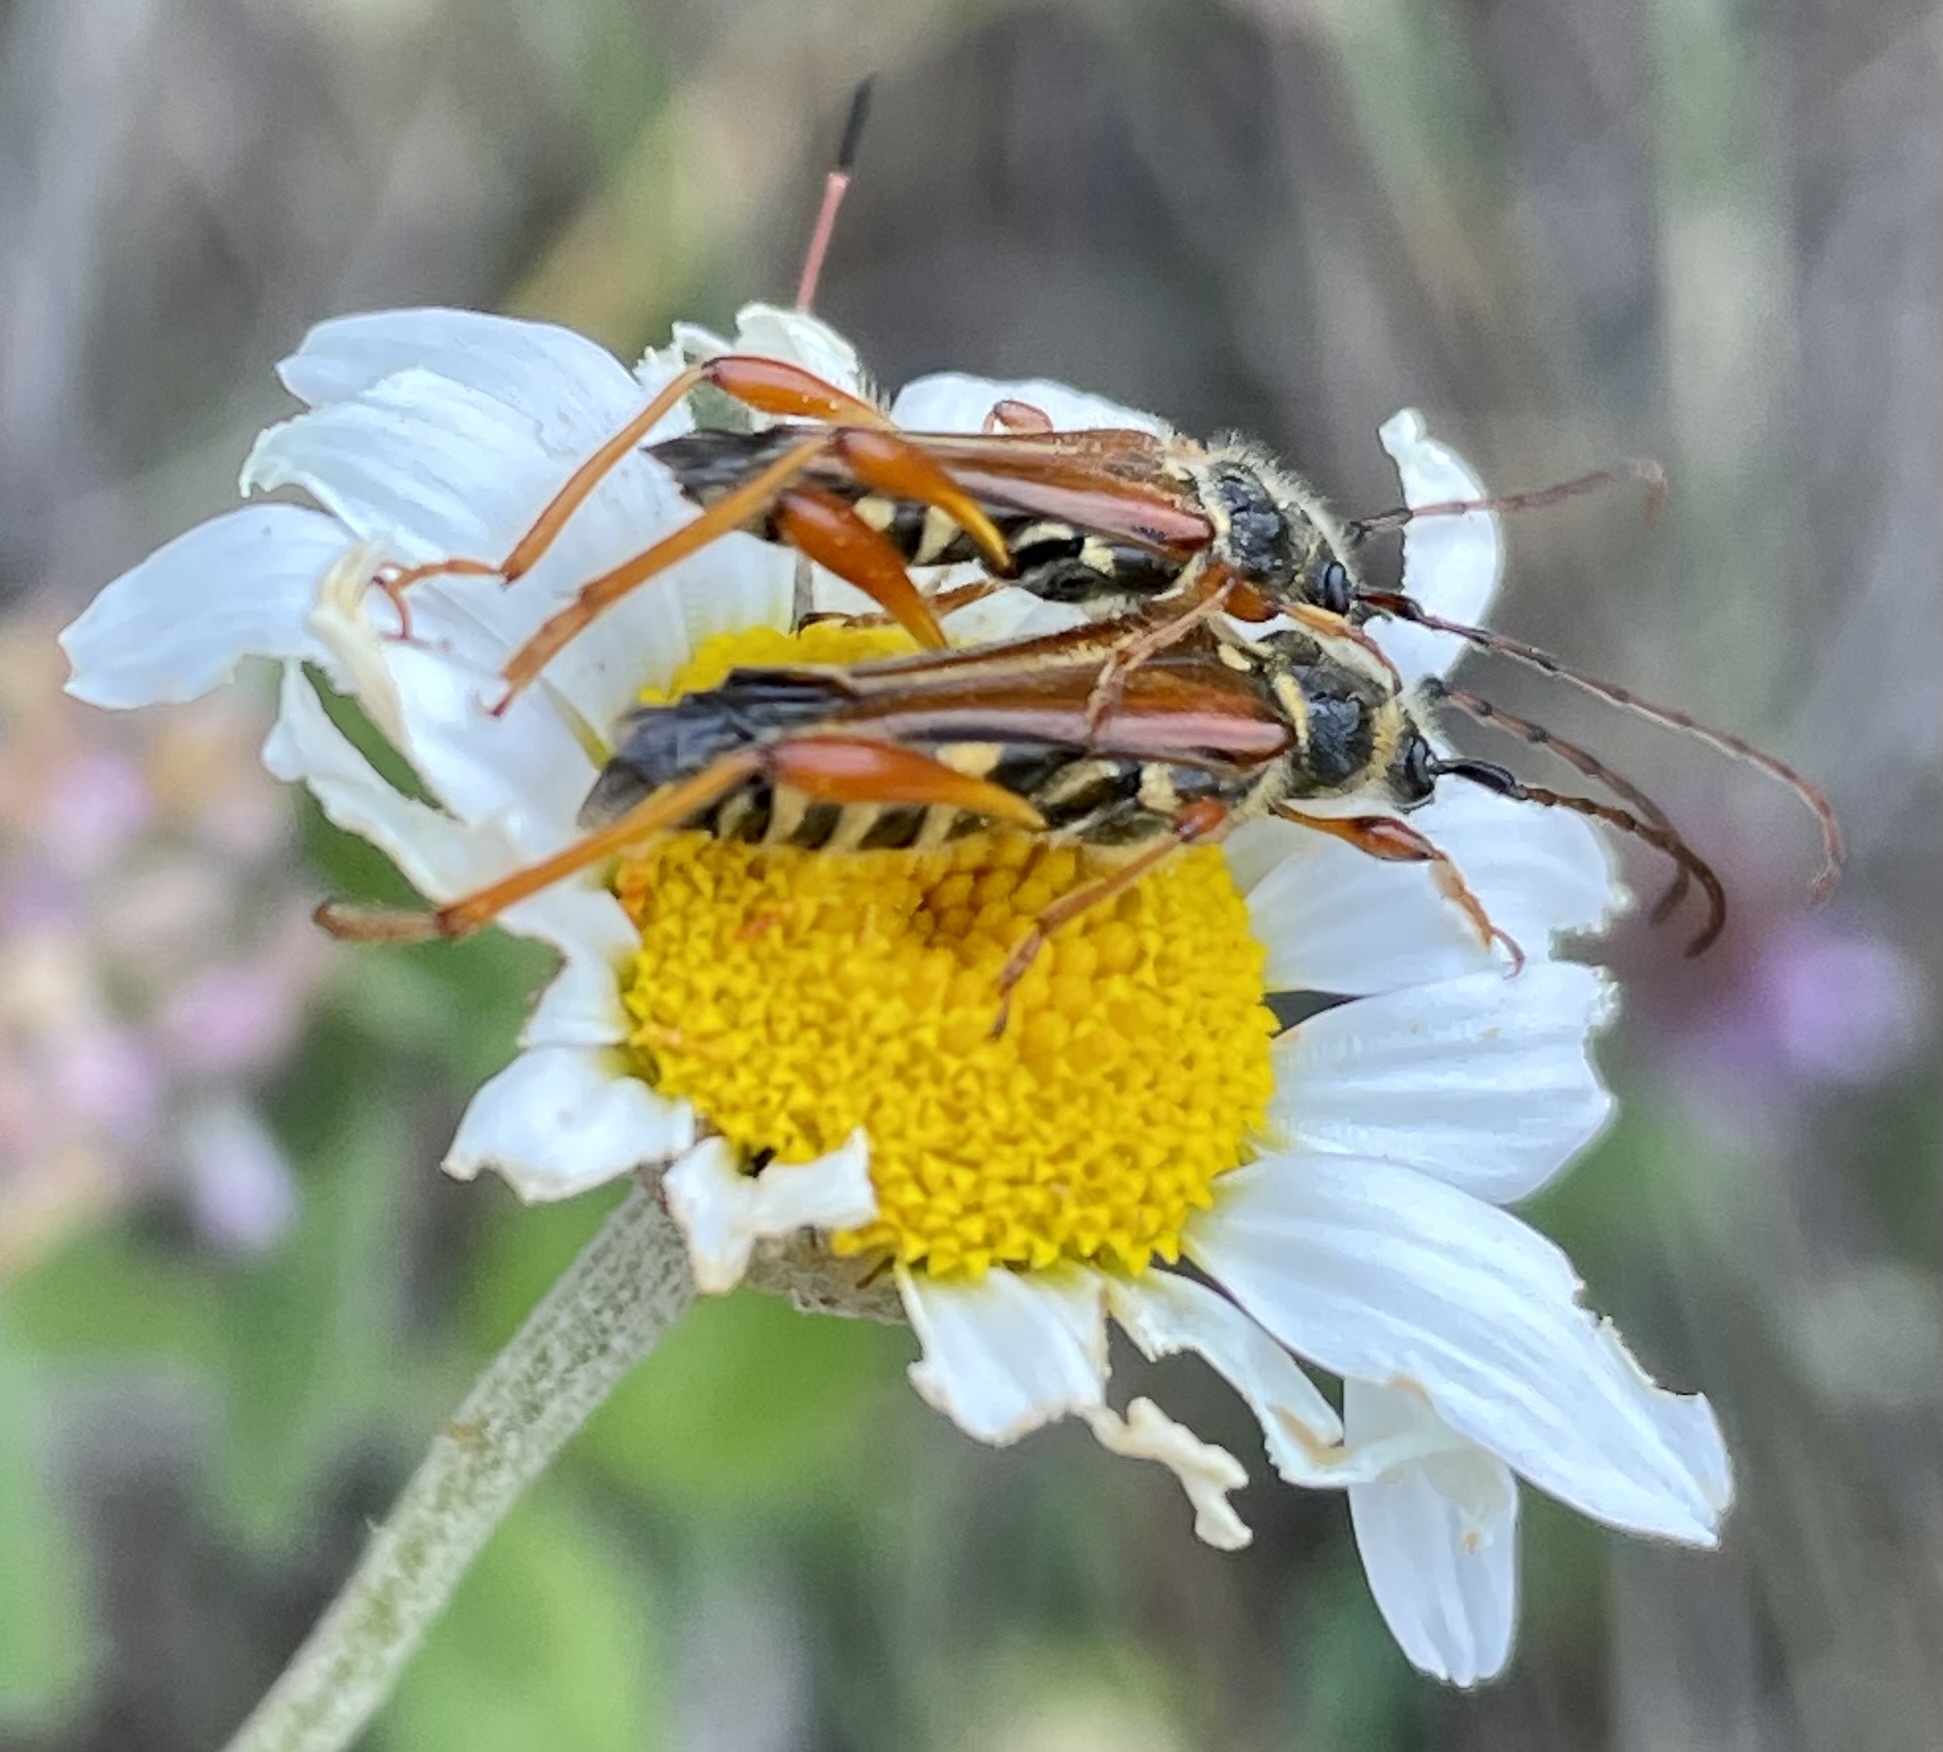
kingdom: Animalia
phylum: Arthropoda
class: Insecta
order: Coleoptera
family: Cerambycidae
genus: Stenopterus
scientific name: Stenopterus rufus
